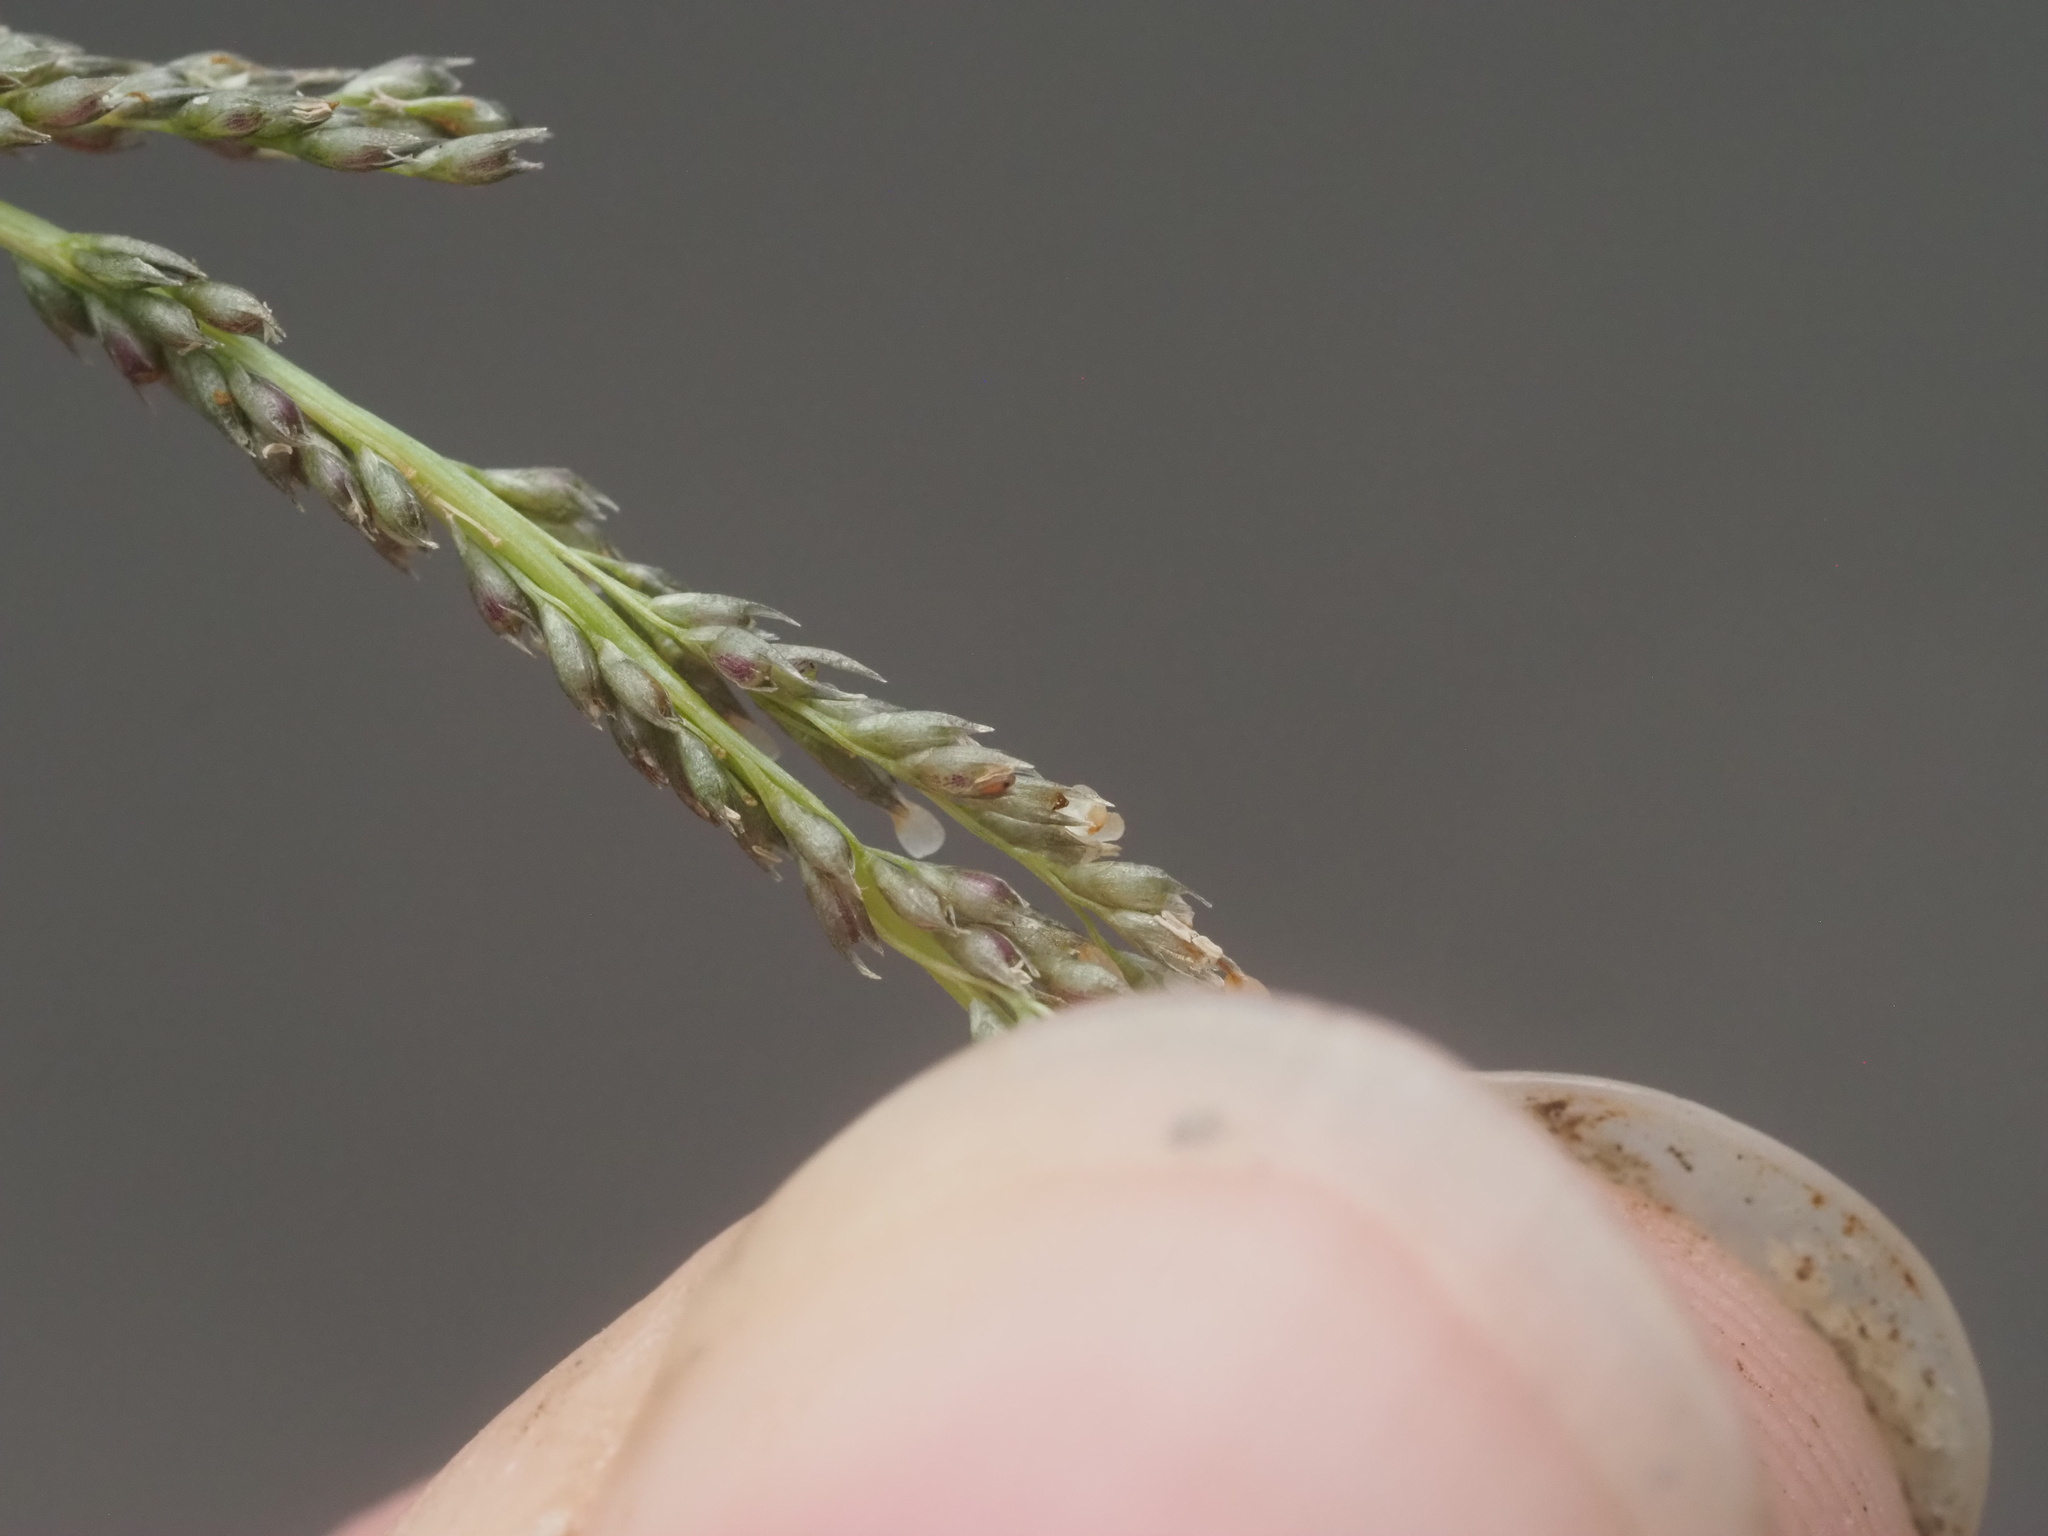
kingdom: Plantae
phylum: Tracheophyta
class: Liliopsida
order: Poales
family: Poaceae
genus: Sporobolus
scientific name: Sporobolus elongatus
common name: Rat tail grass
